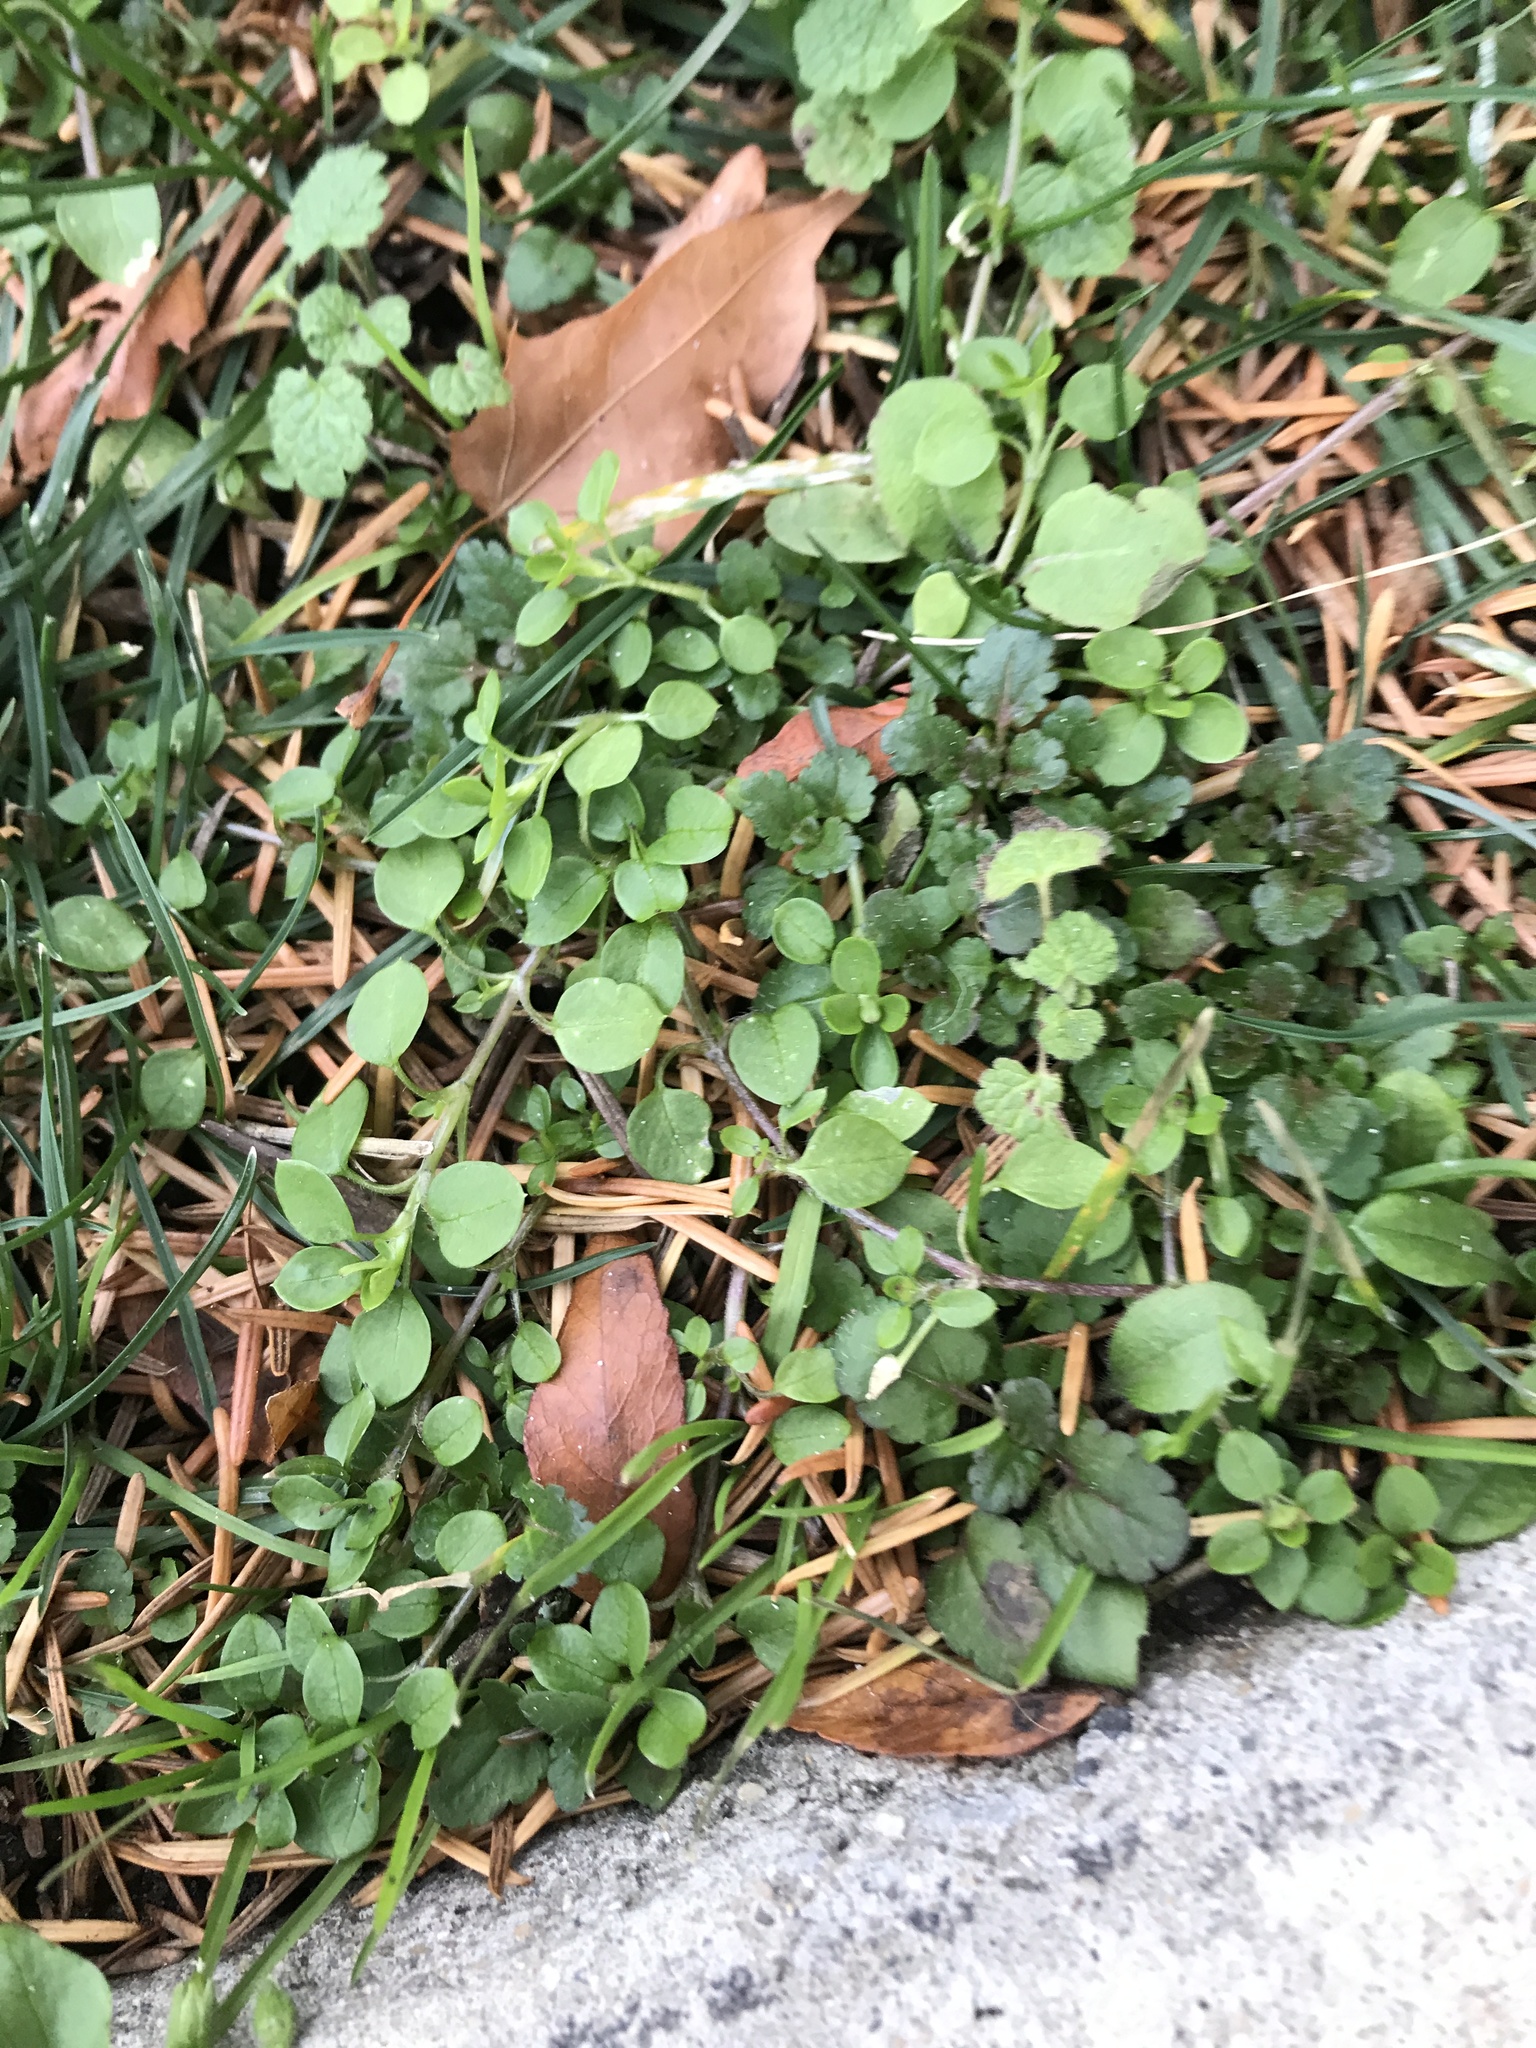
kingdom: Plantae
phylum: Tracheophyta
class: Magnoliopsida
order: Caryophyllales
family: Caryophyllaceae
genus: Stellaria
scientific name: Stellaria media
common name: Common chickweed
